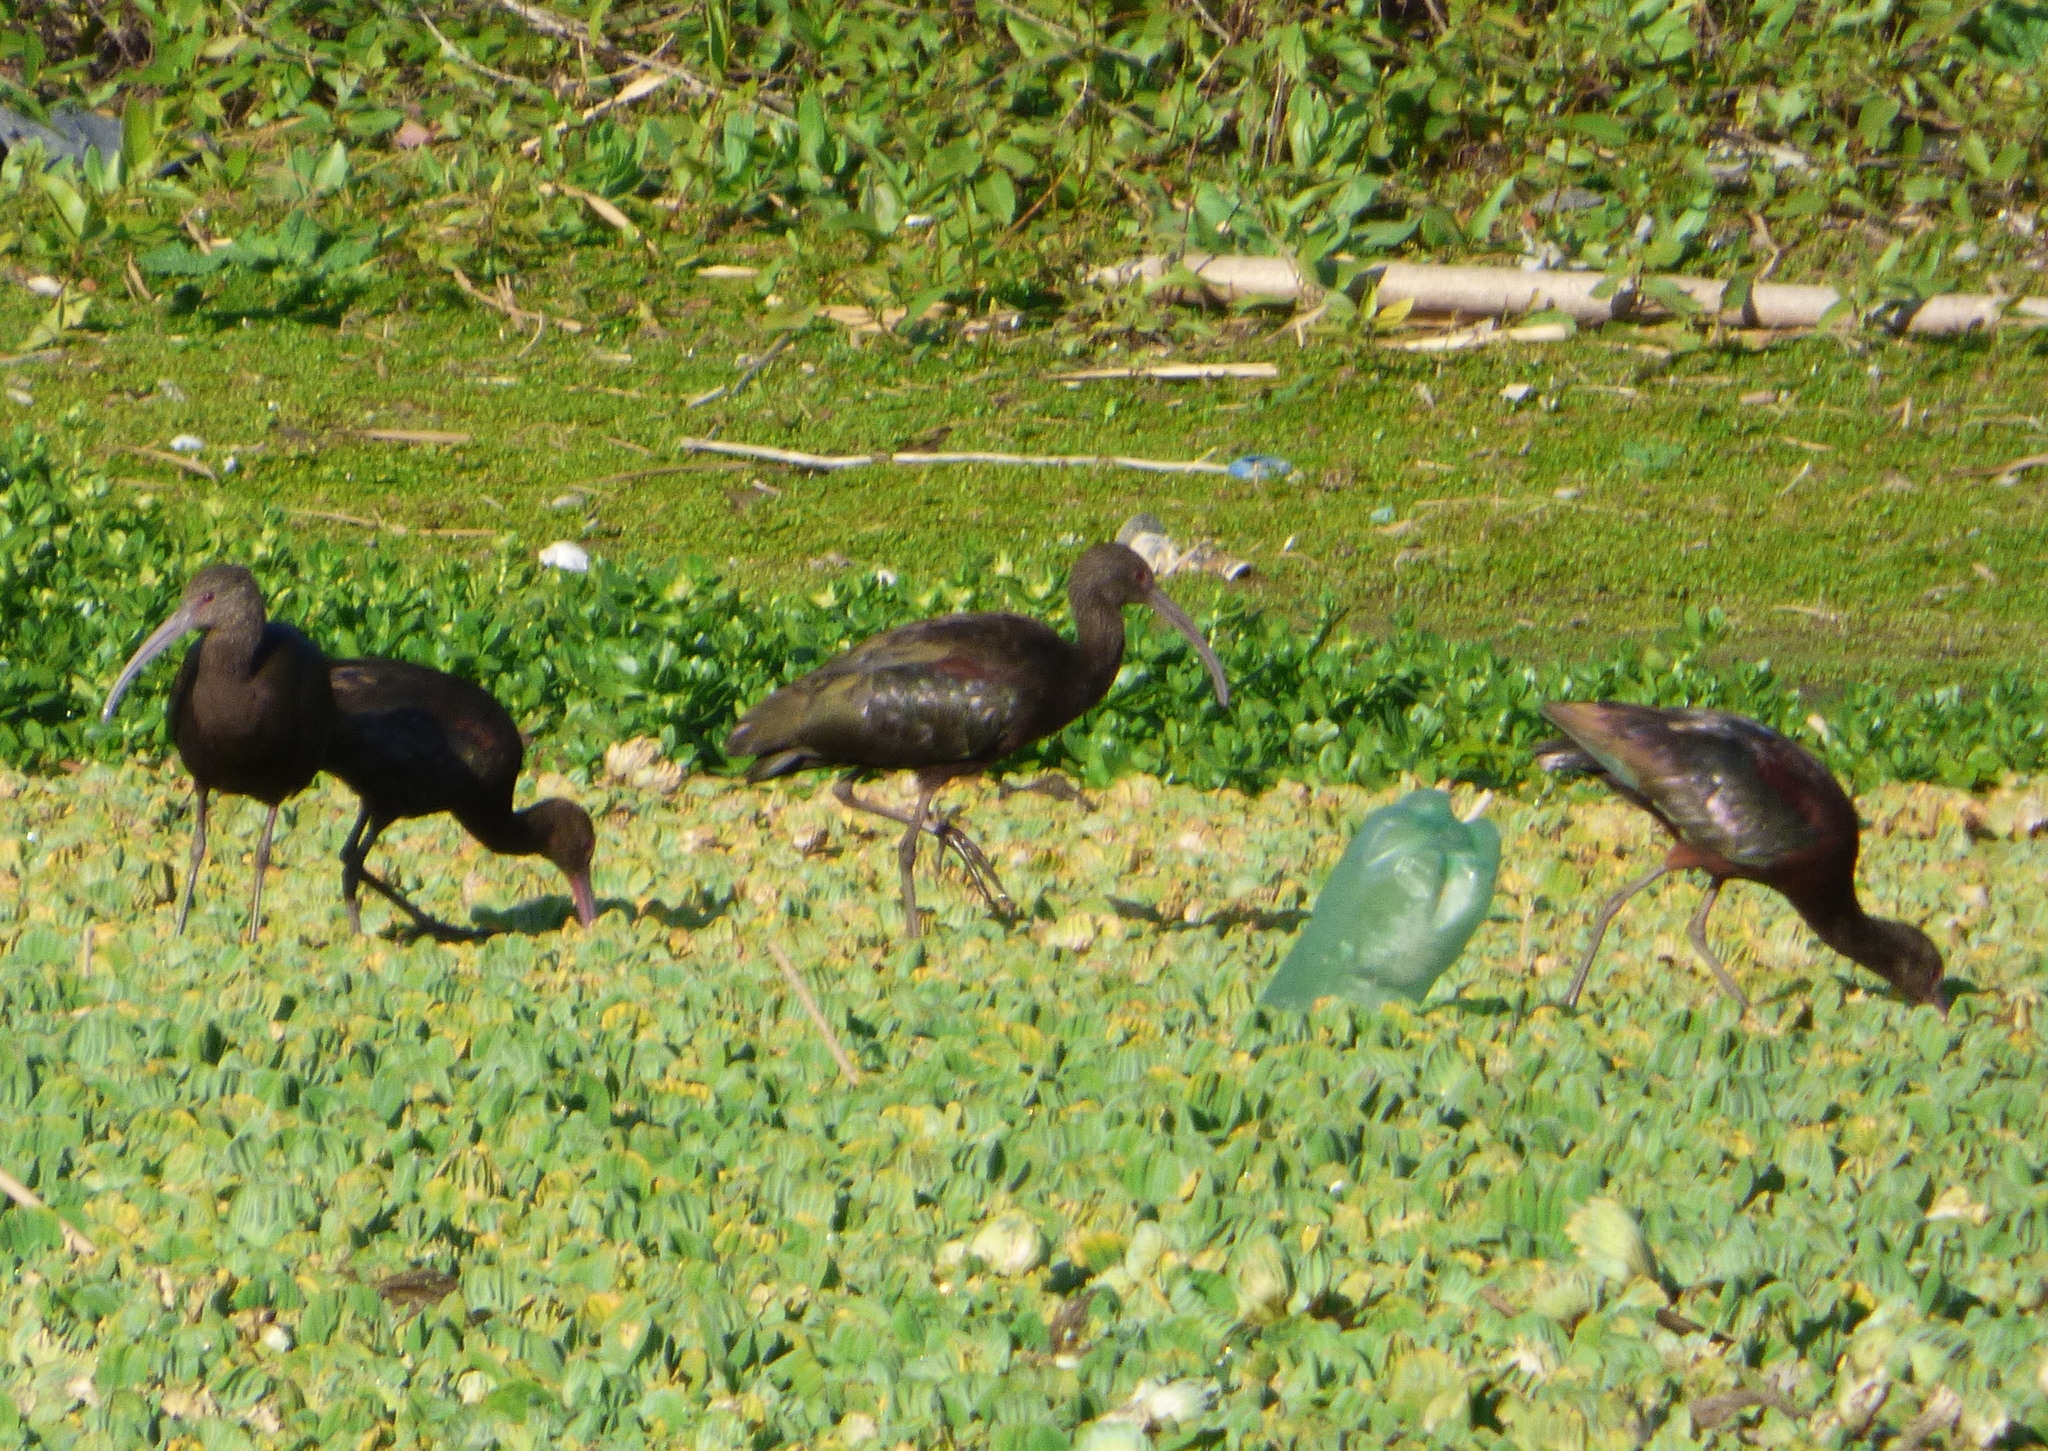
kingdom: Animalia
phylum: Chordata
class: Aves
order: Pelecaniformes
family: Threskiornithidae
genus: Plegadis
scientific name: Plegadis chihi
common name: White-faced ibis
